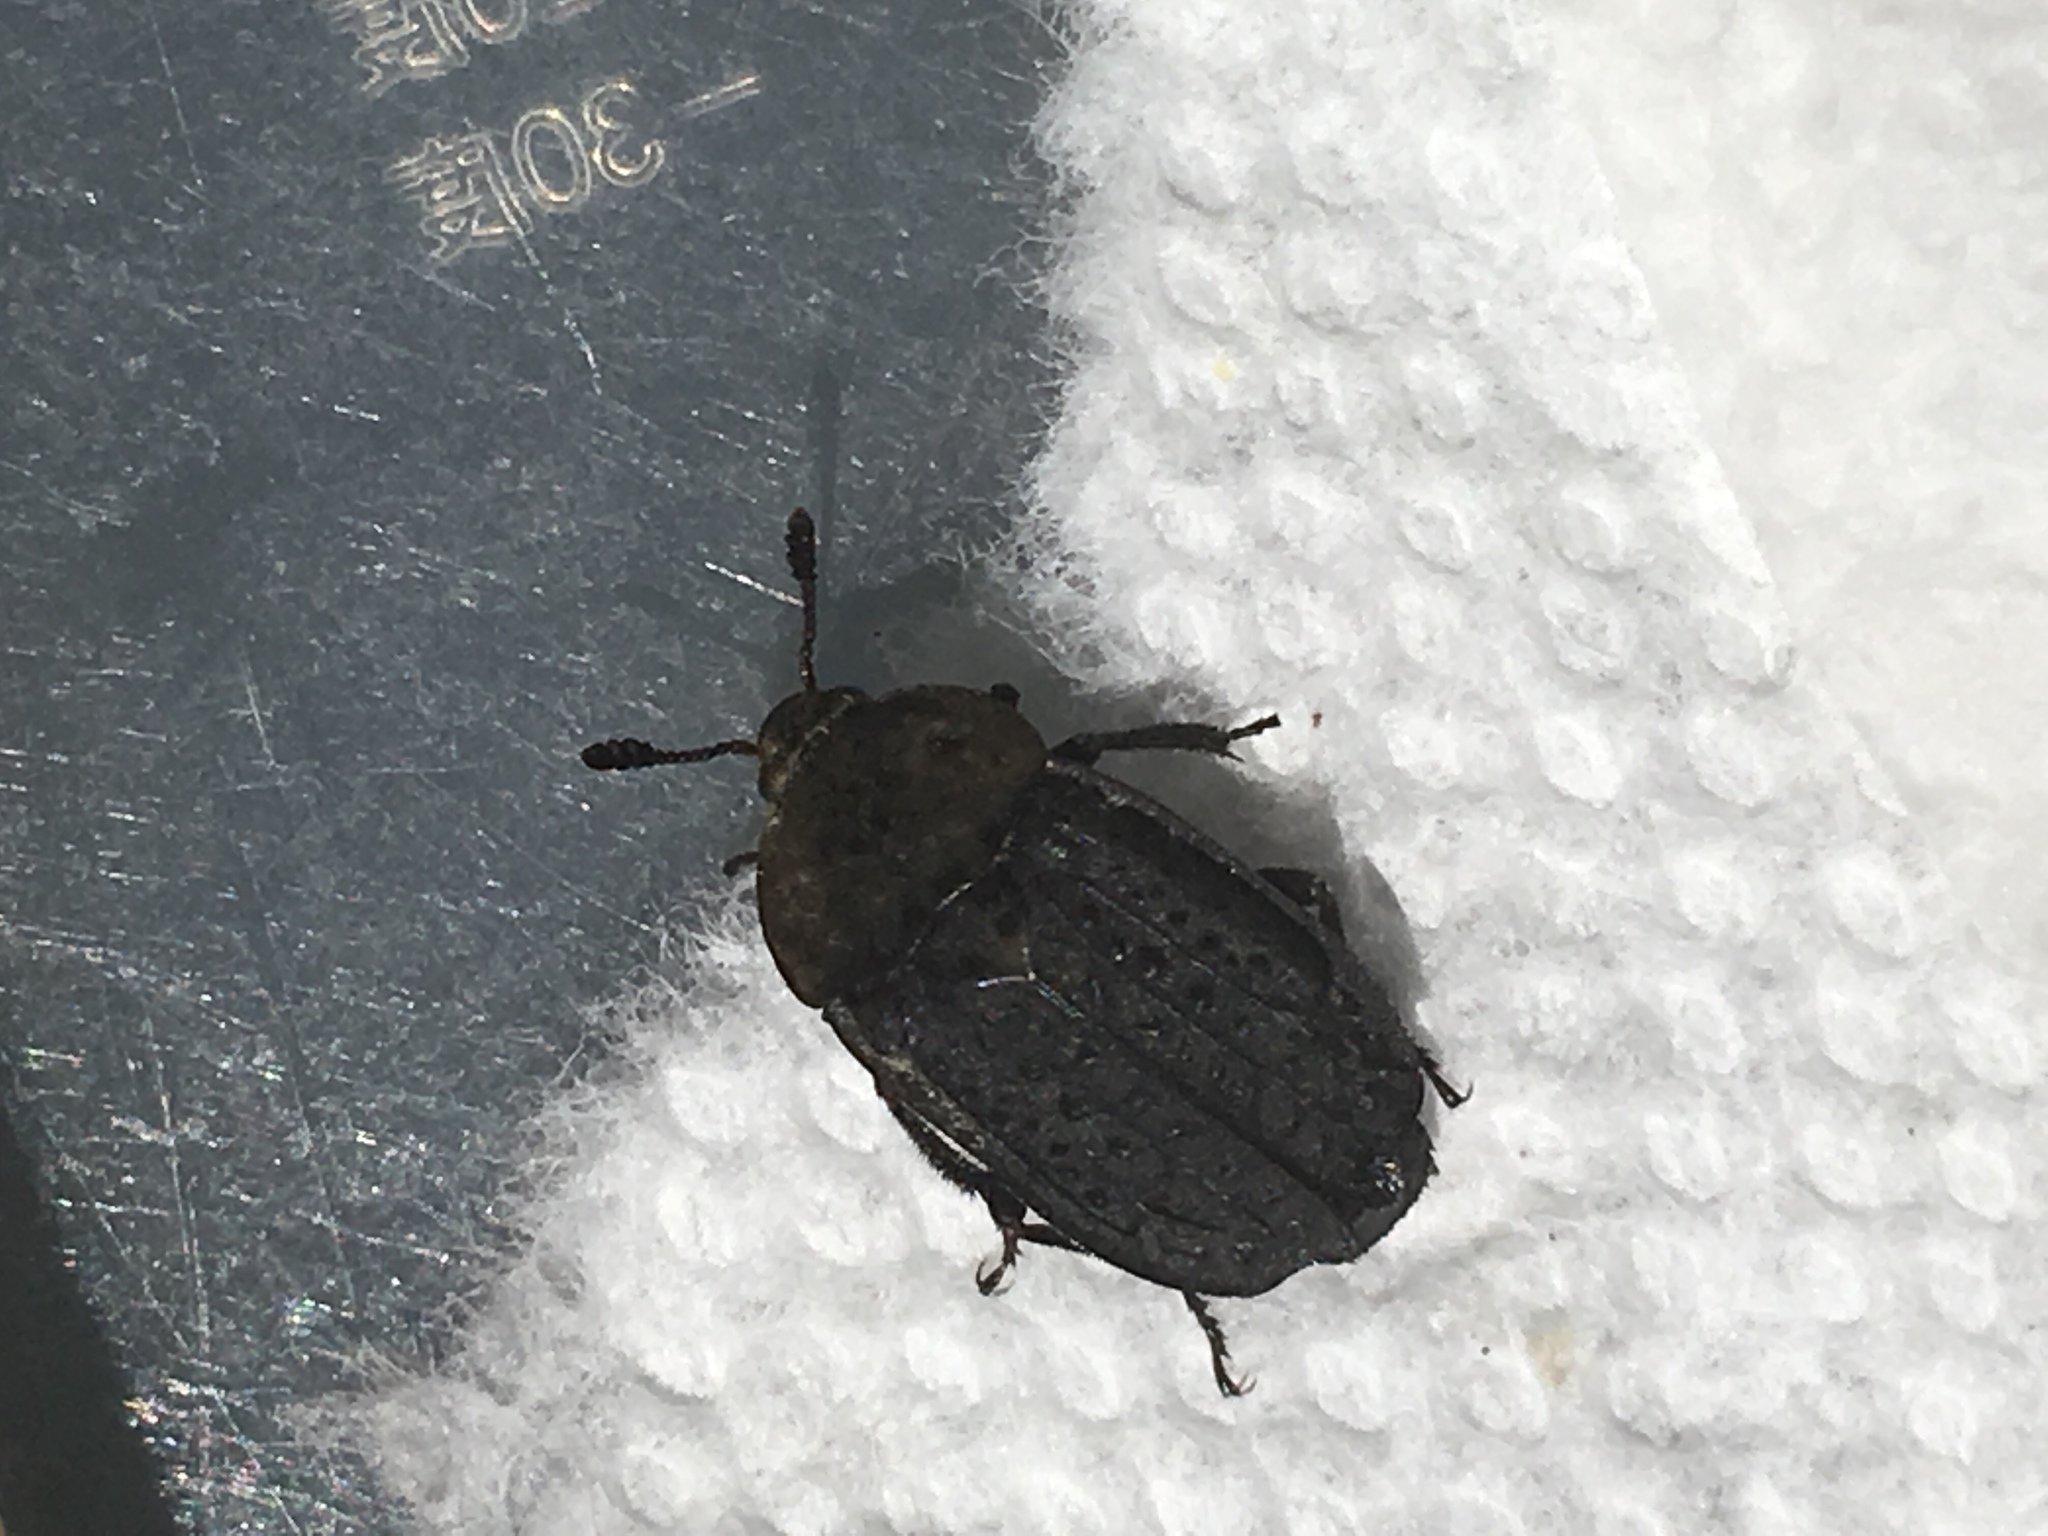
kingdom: Animalia
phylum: Arthropoda
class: Insecta
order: Coleoptera
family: Staphylinidae
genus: Thanatophilus
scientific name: Thanatophilus lapponicus
